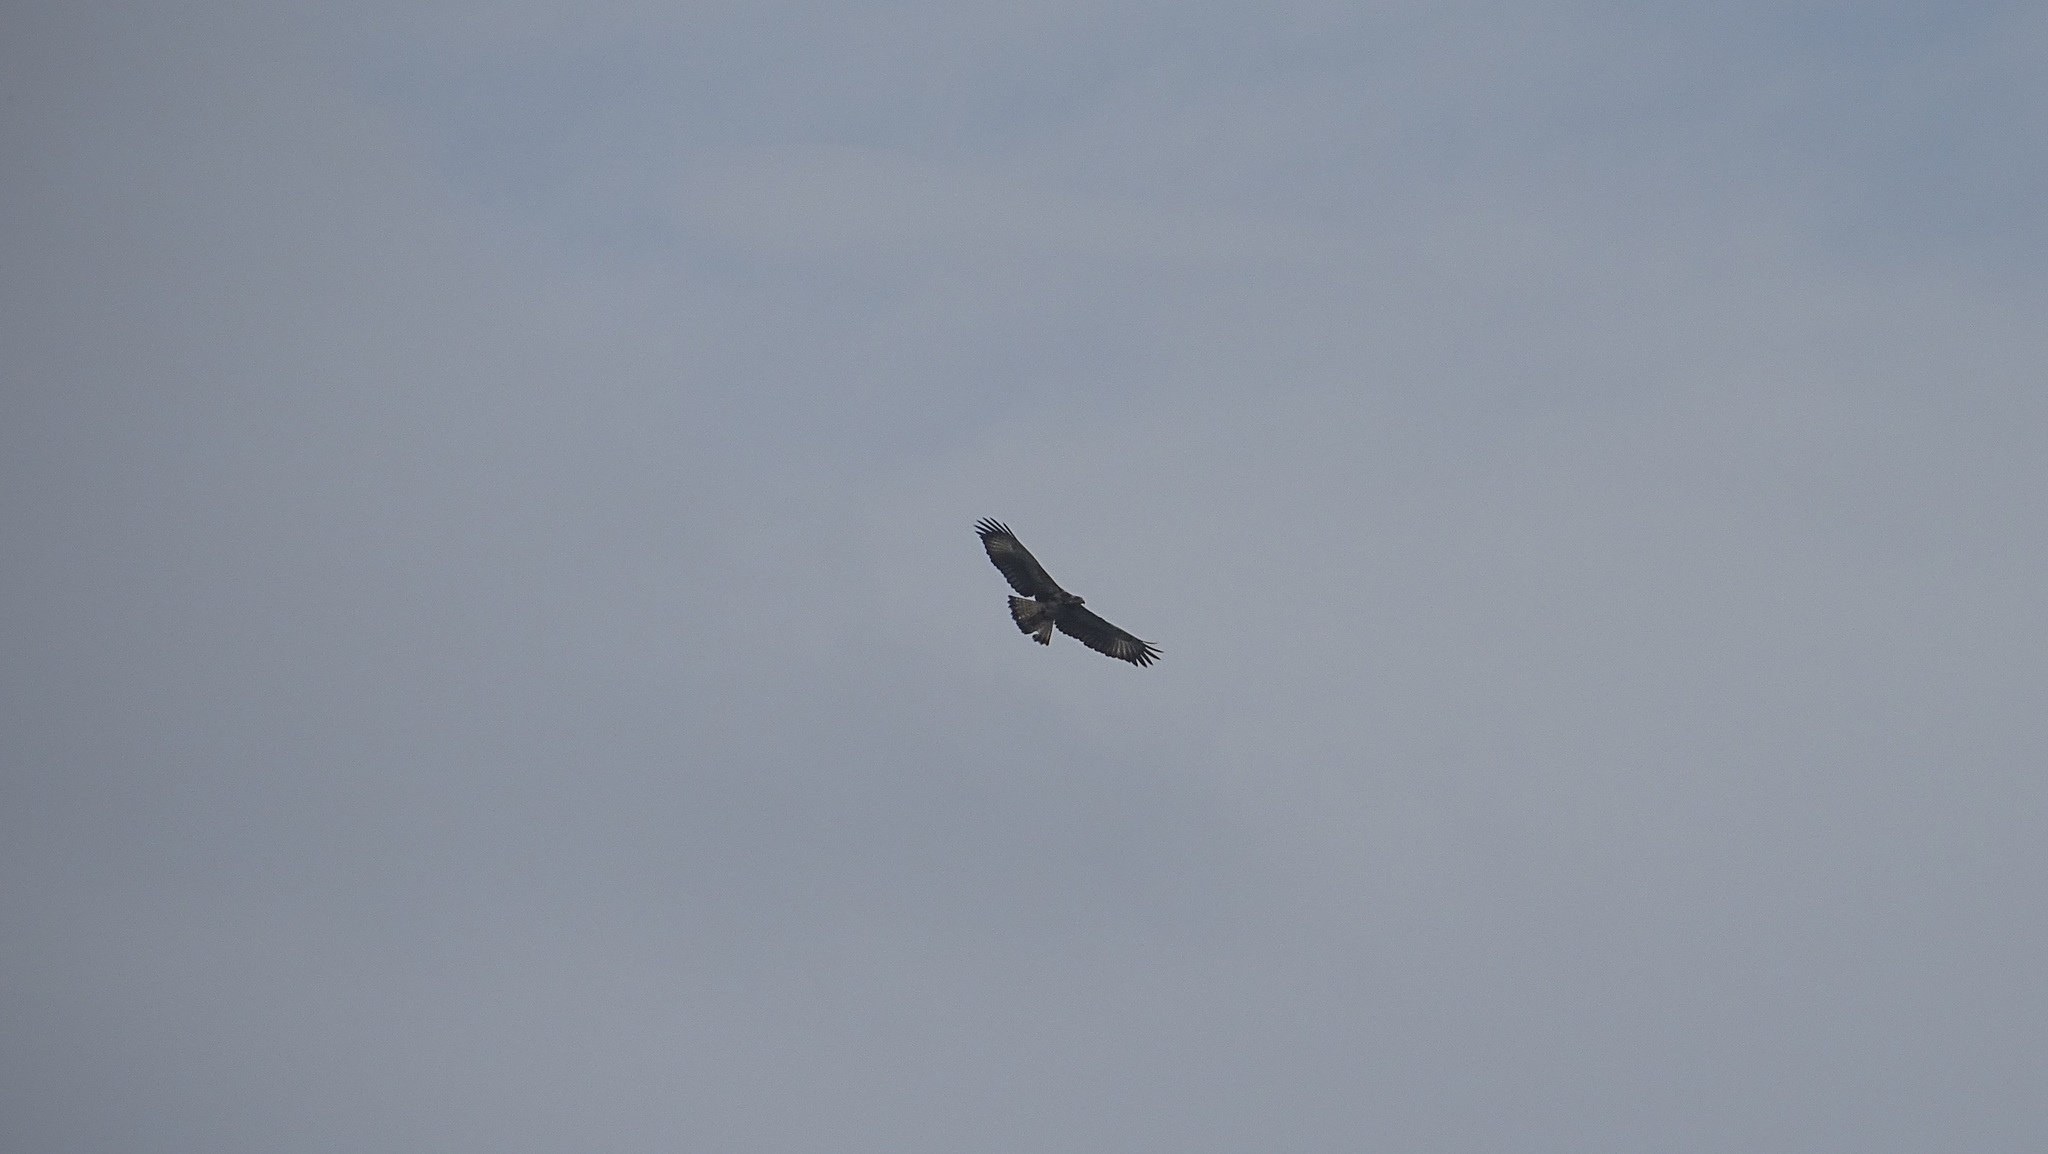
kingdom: Animalia
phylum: Chordata
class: Aves
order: Accipitriformes
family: Accipitridae
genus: Buteogallus
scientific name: Buteogallus anthracinus
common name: Common black hawk
